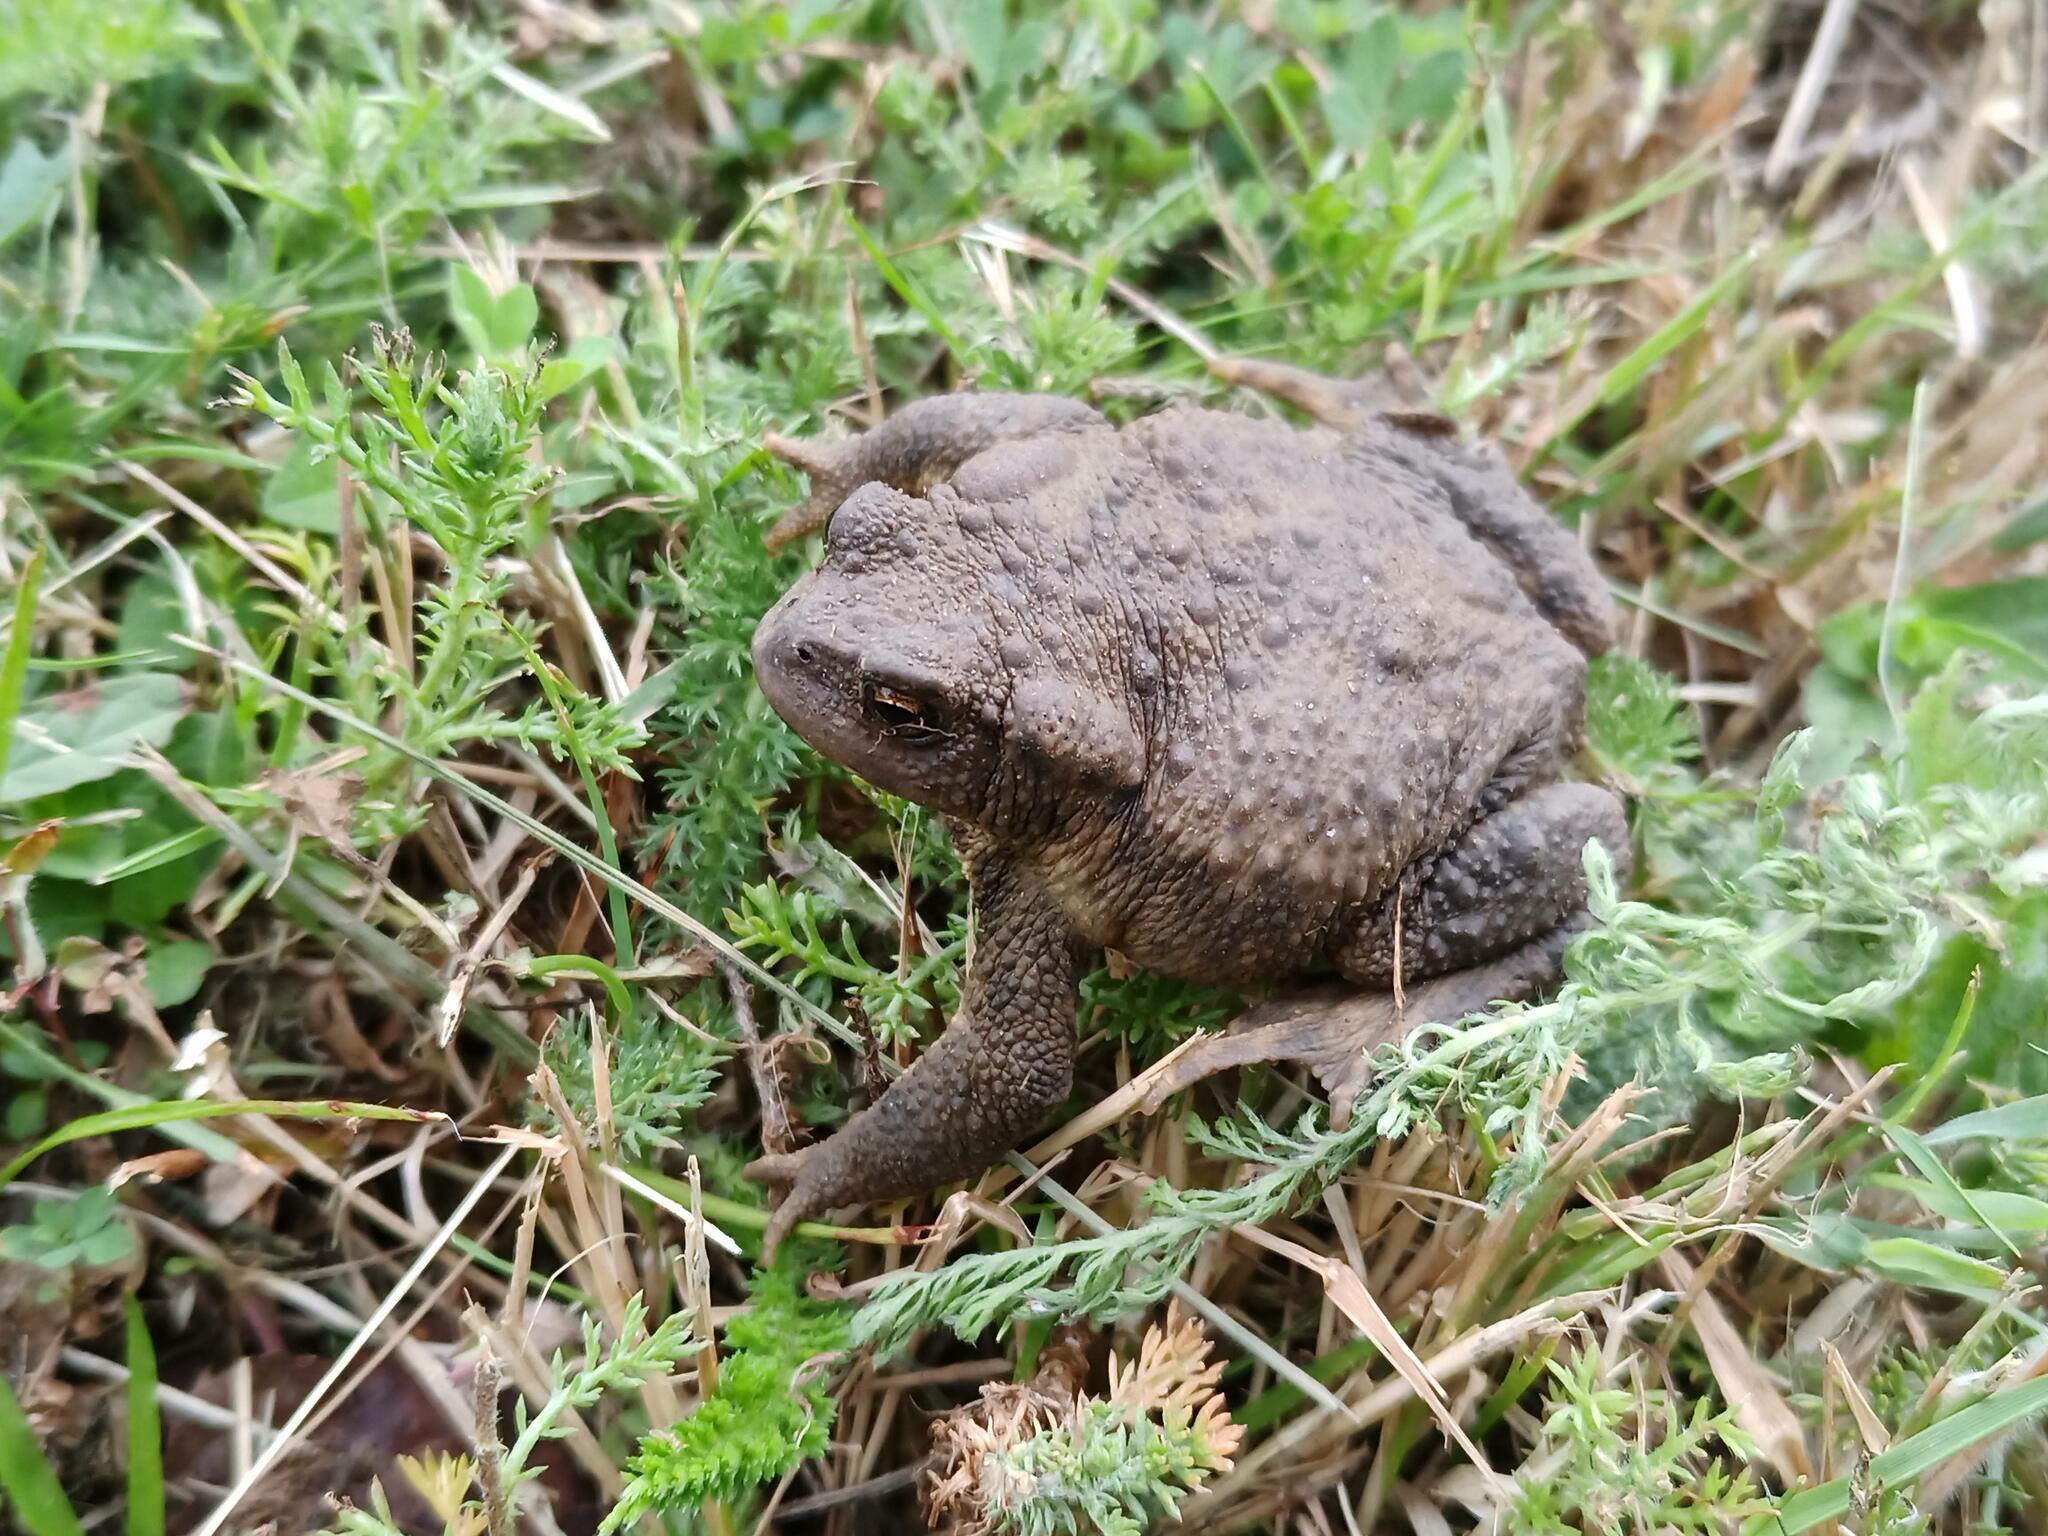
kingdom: Animalia
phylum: Chordata
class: Amphibia
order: Anura
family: Bufonidae
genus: Bufo
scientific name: Bufo spinosus
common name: Western common toad
